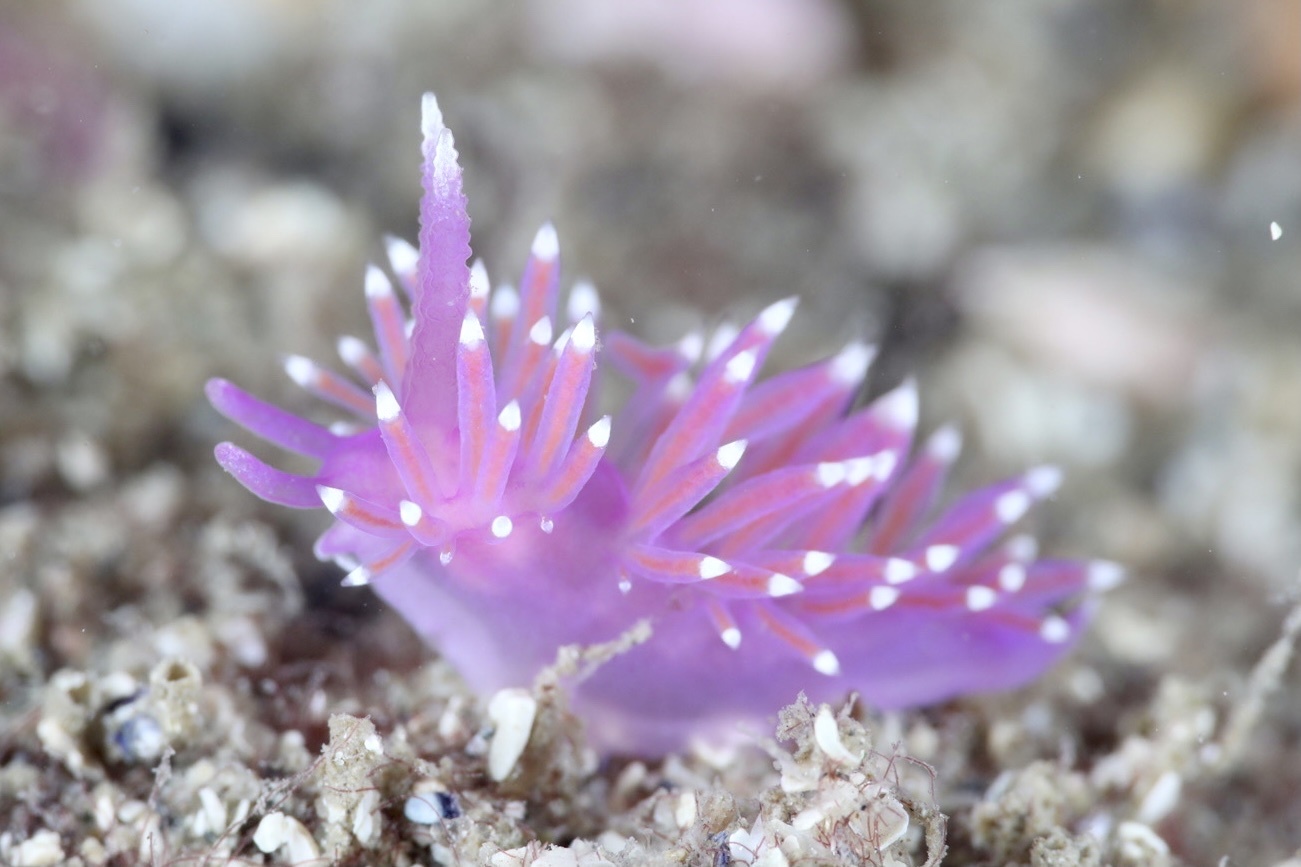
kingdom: Animalia
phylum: Mollusca
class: Gastropoda
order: Nudibranchia
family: Flabellinidae
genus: Edmundsella
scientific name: Edmundsella pedata
